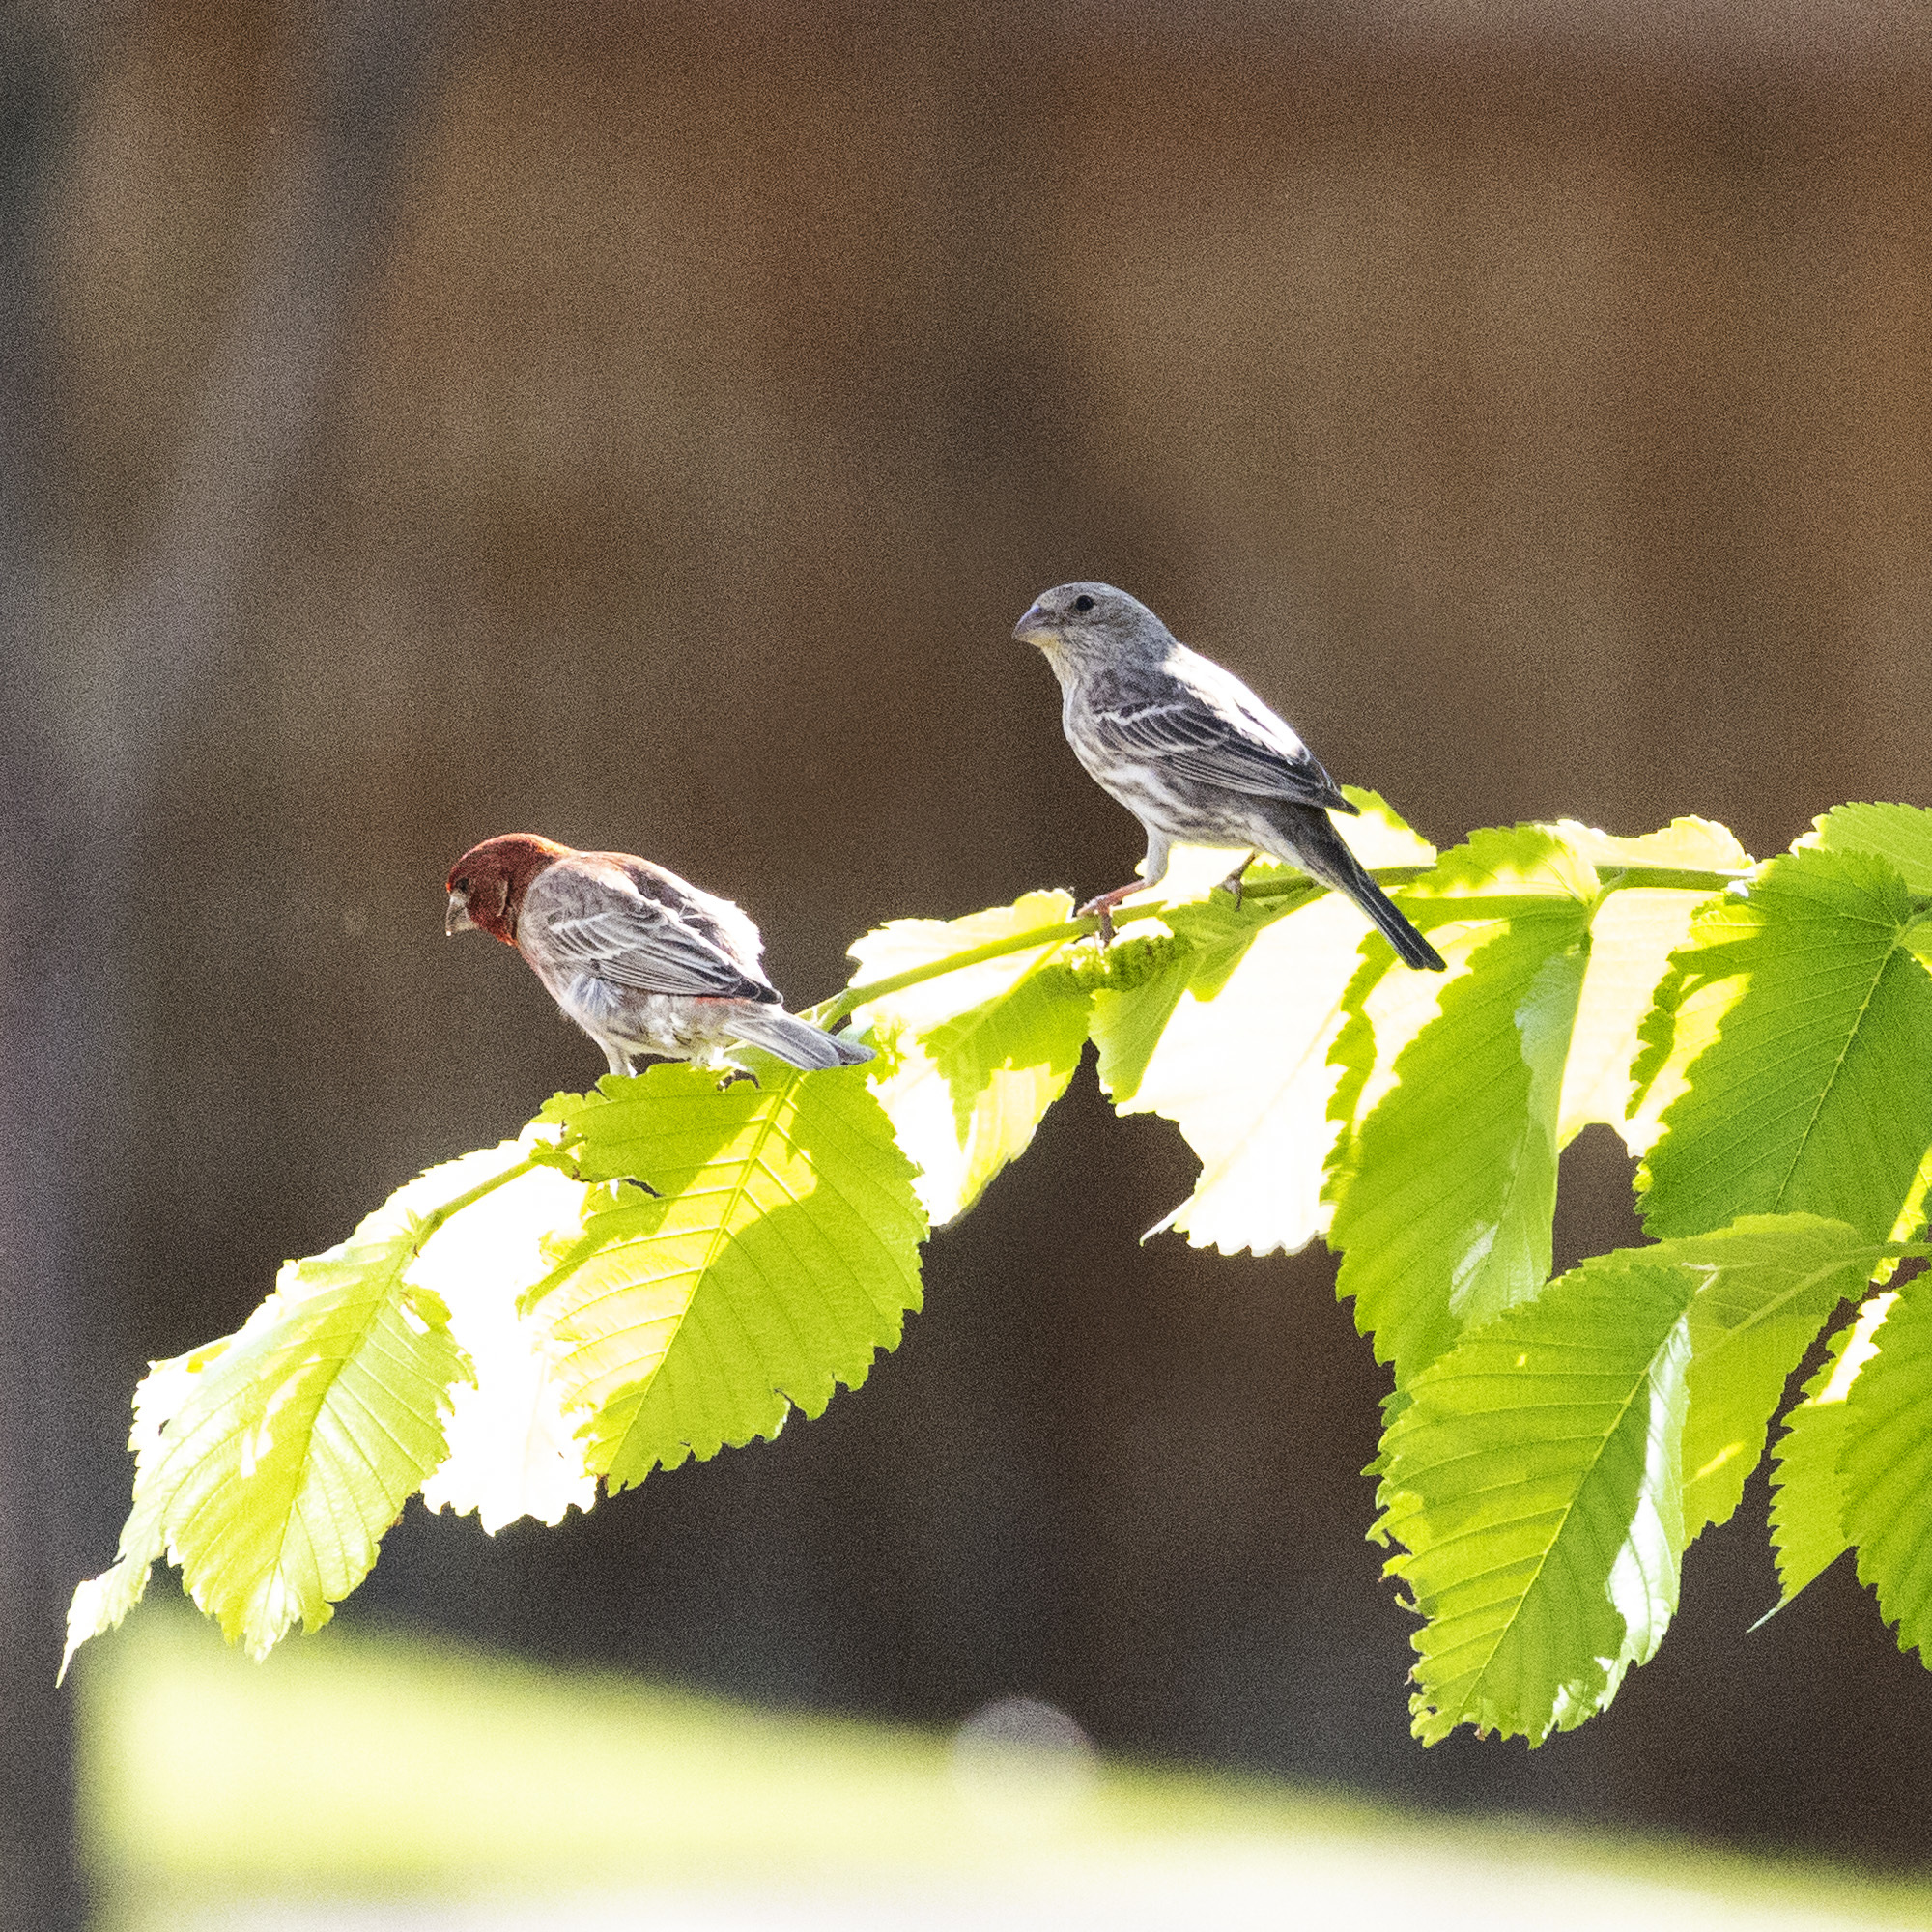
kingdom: Animalia
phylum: Chordata
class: Aves
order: Passeriformes
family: Fringillidae
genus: Haemorhous
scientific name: Haemorhous mexicanus
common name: House finch
